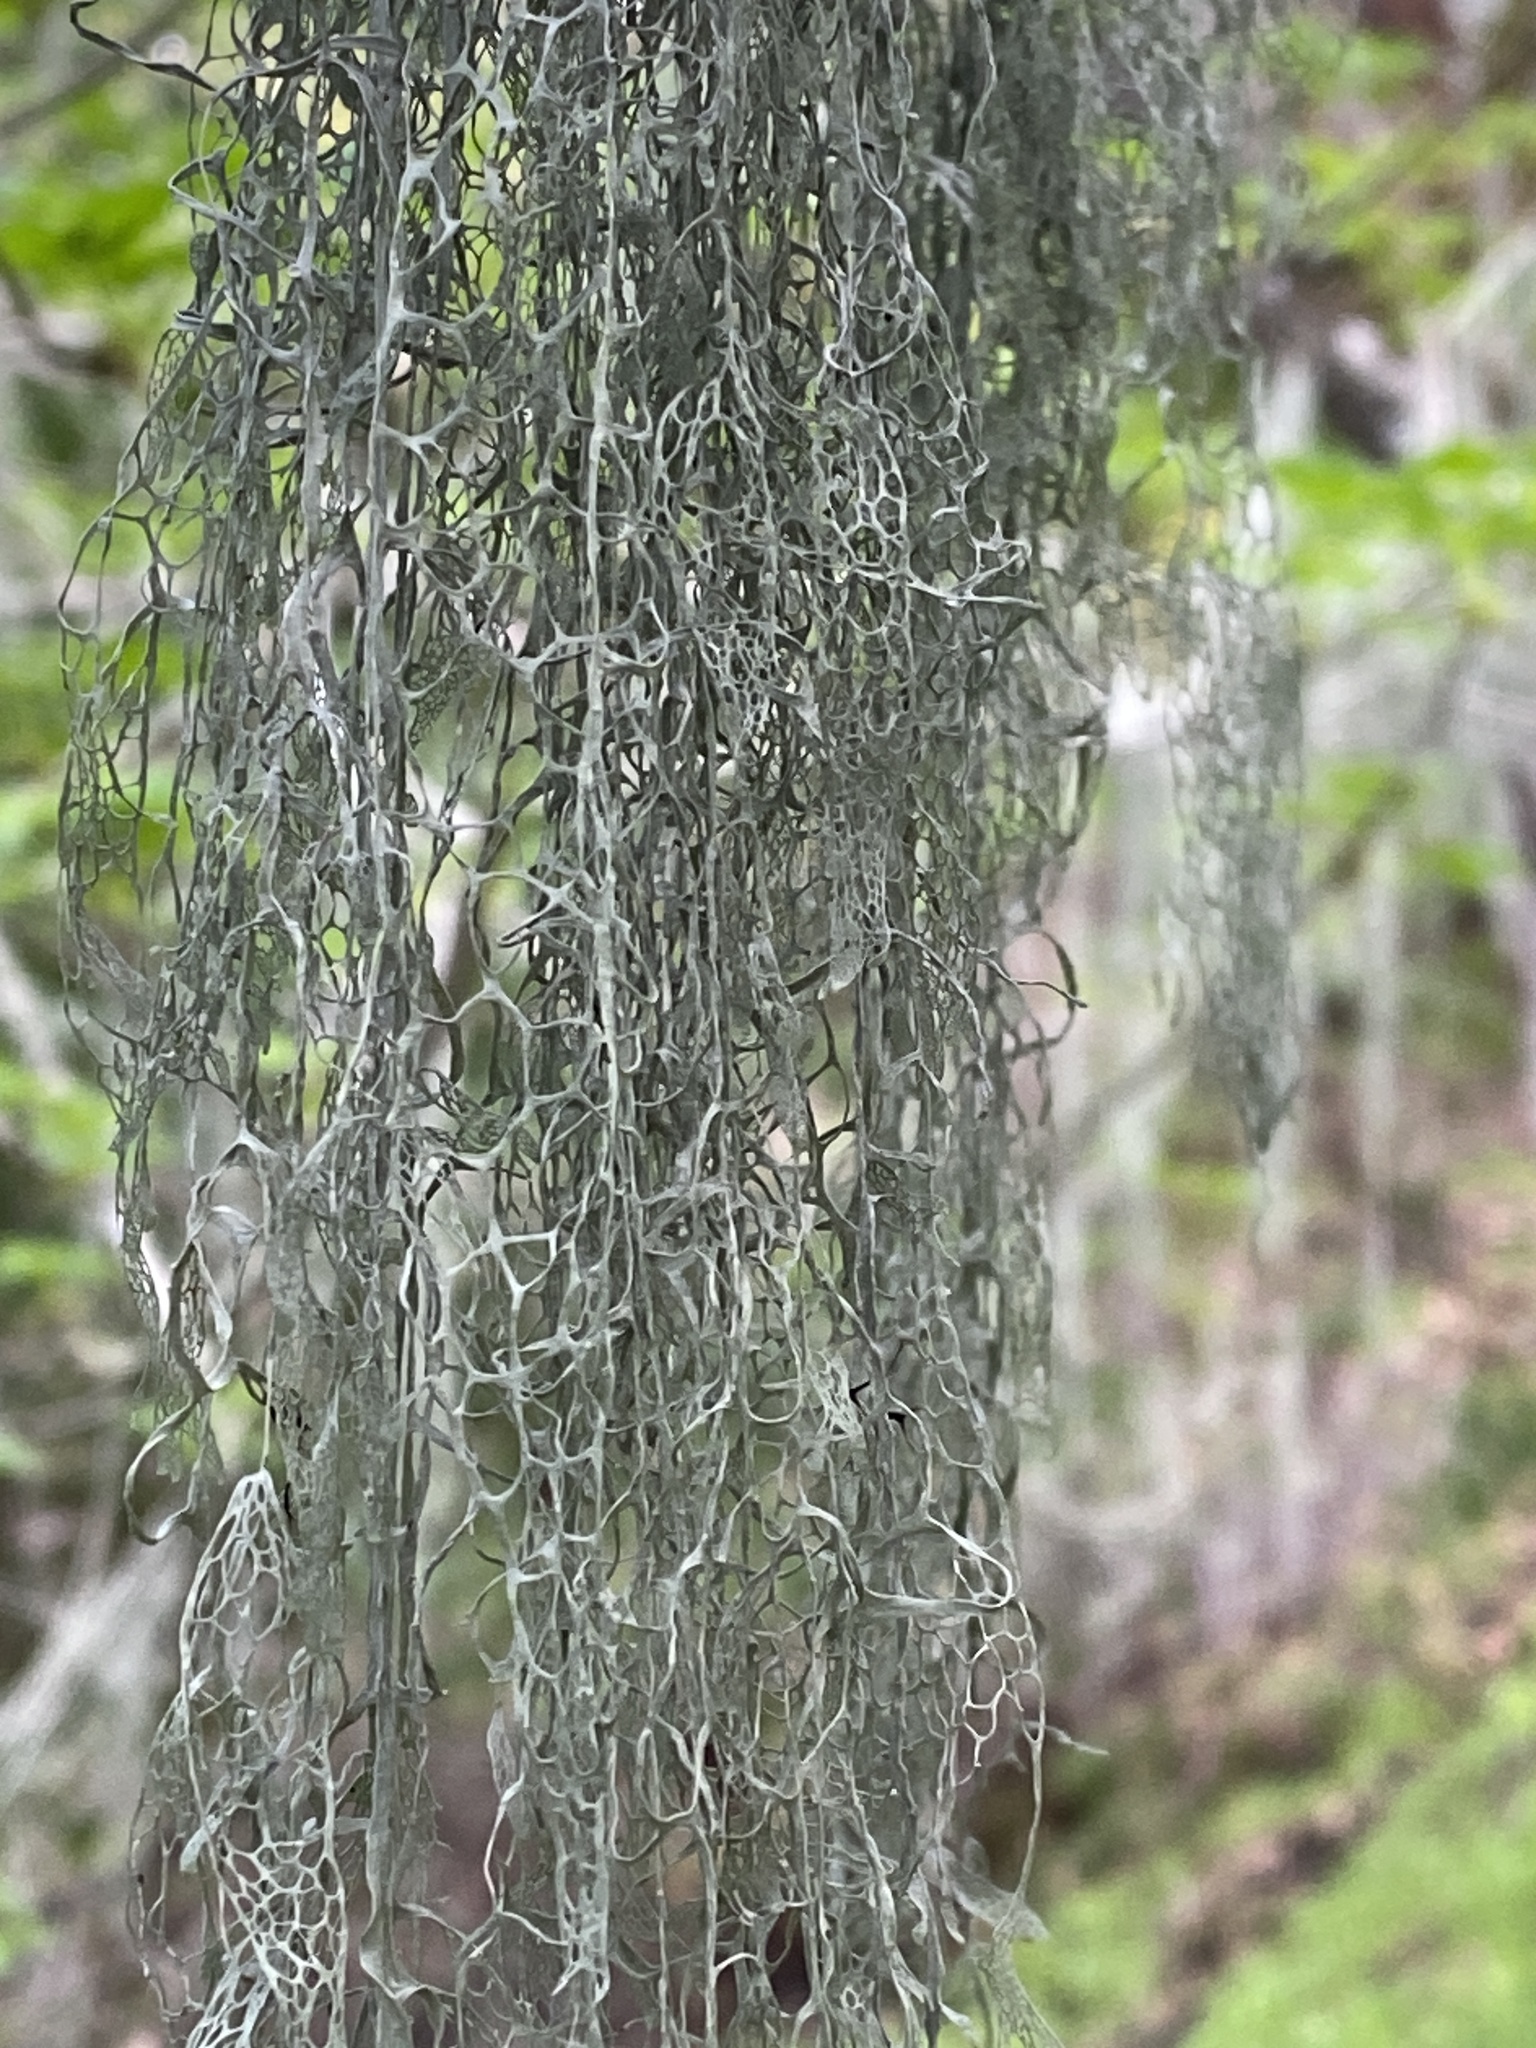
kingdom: Fungi
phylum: Ascomycota
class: Lecanoromycetes
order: Lecanorales
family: Ramalinaceae
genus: Ramalina
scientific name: Ramalina menziesii
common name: Lace lichen
